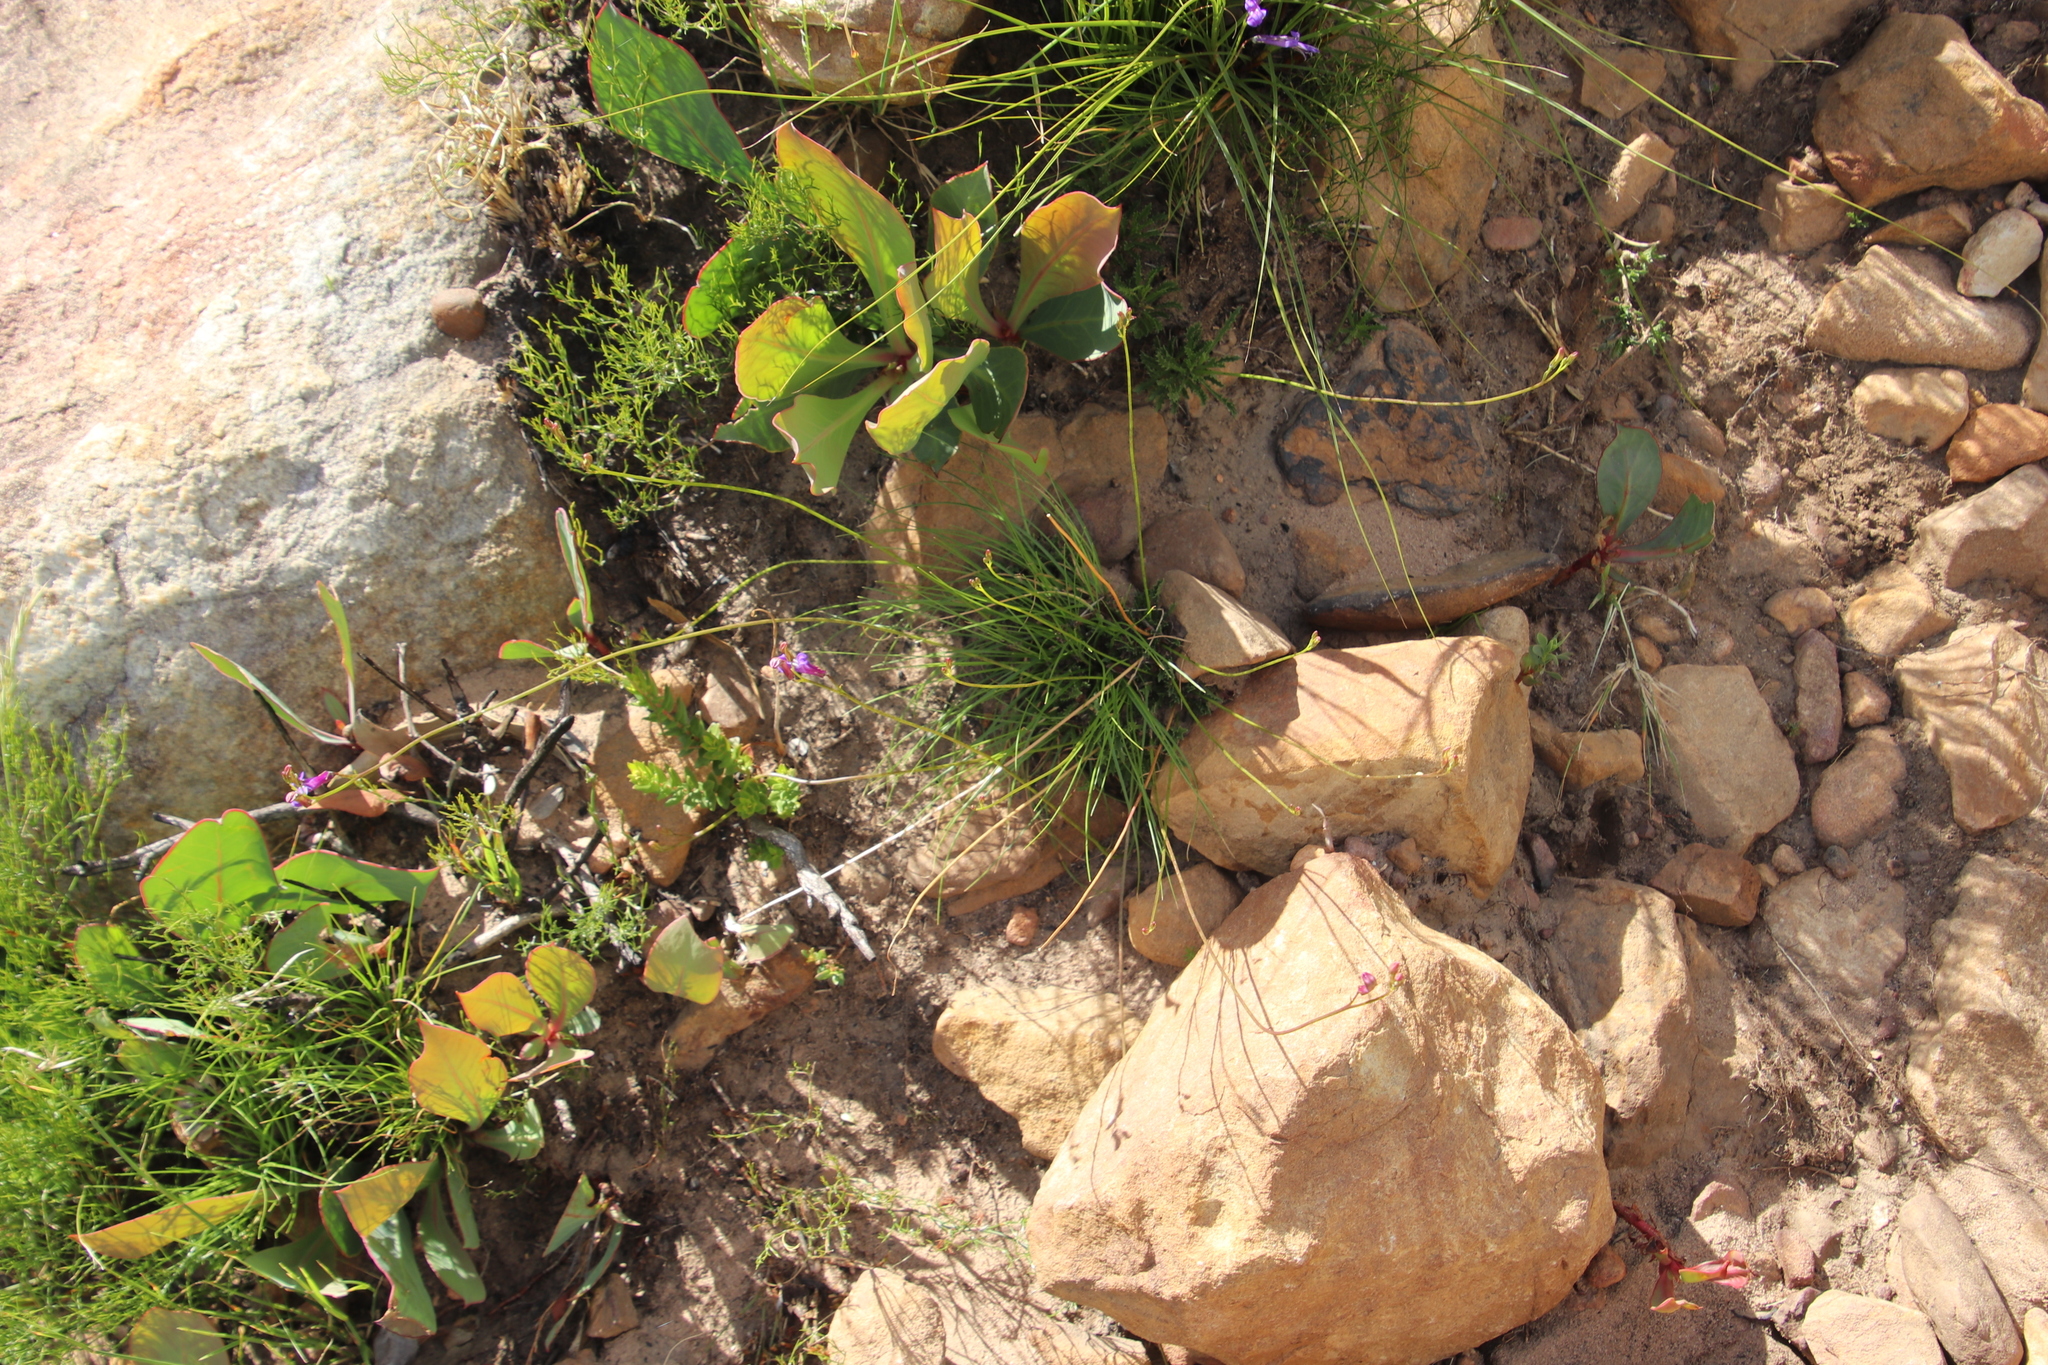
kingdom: Plantae
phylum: Tracheophyta
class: Magnoliopsida
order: Asterales
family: Campanulaceae
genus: Lobelia
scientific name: Lobelia coronopifolia
